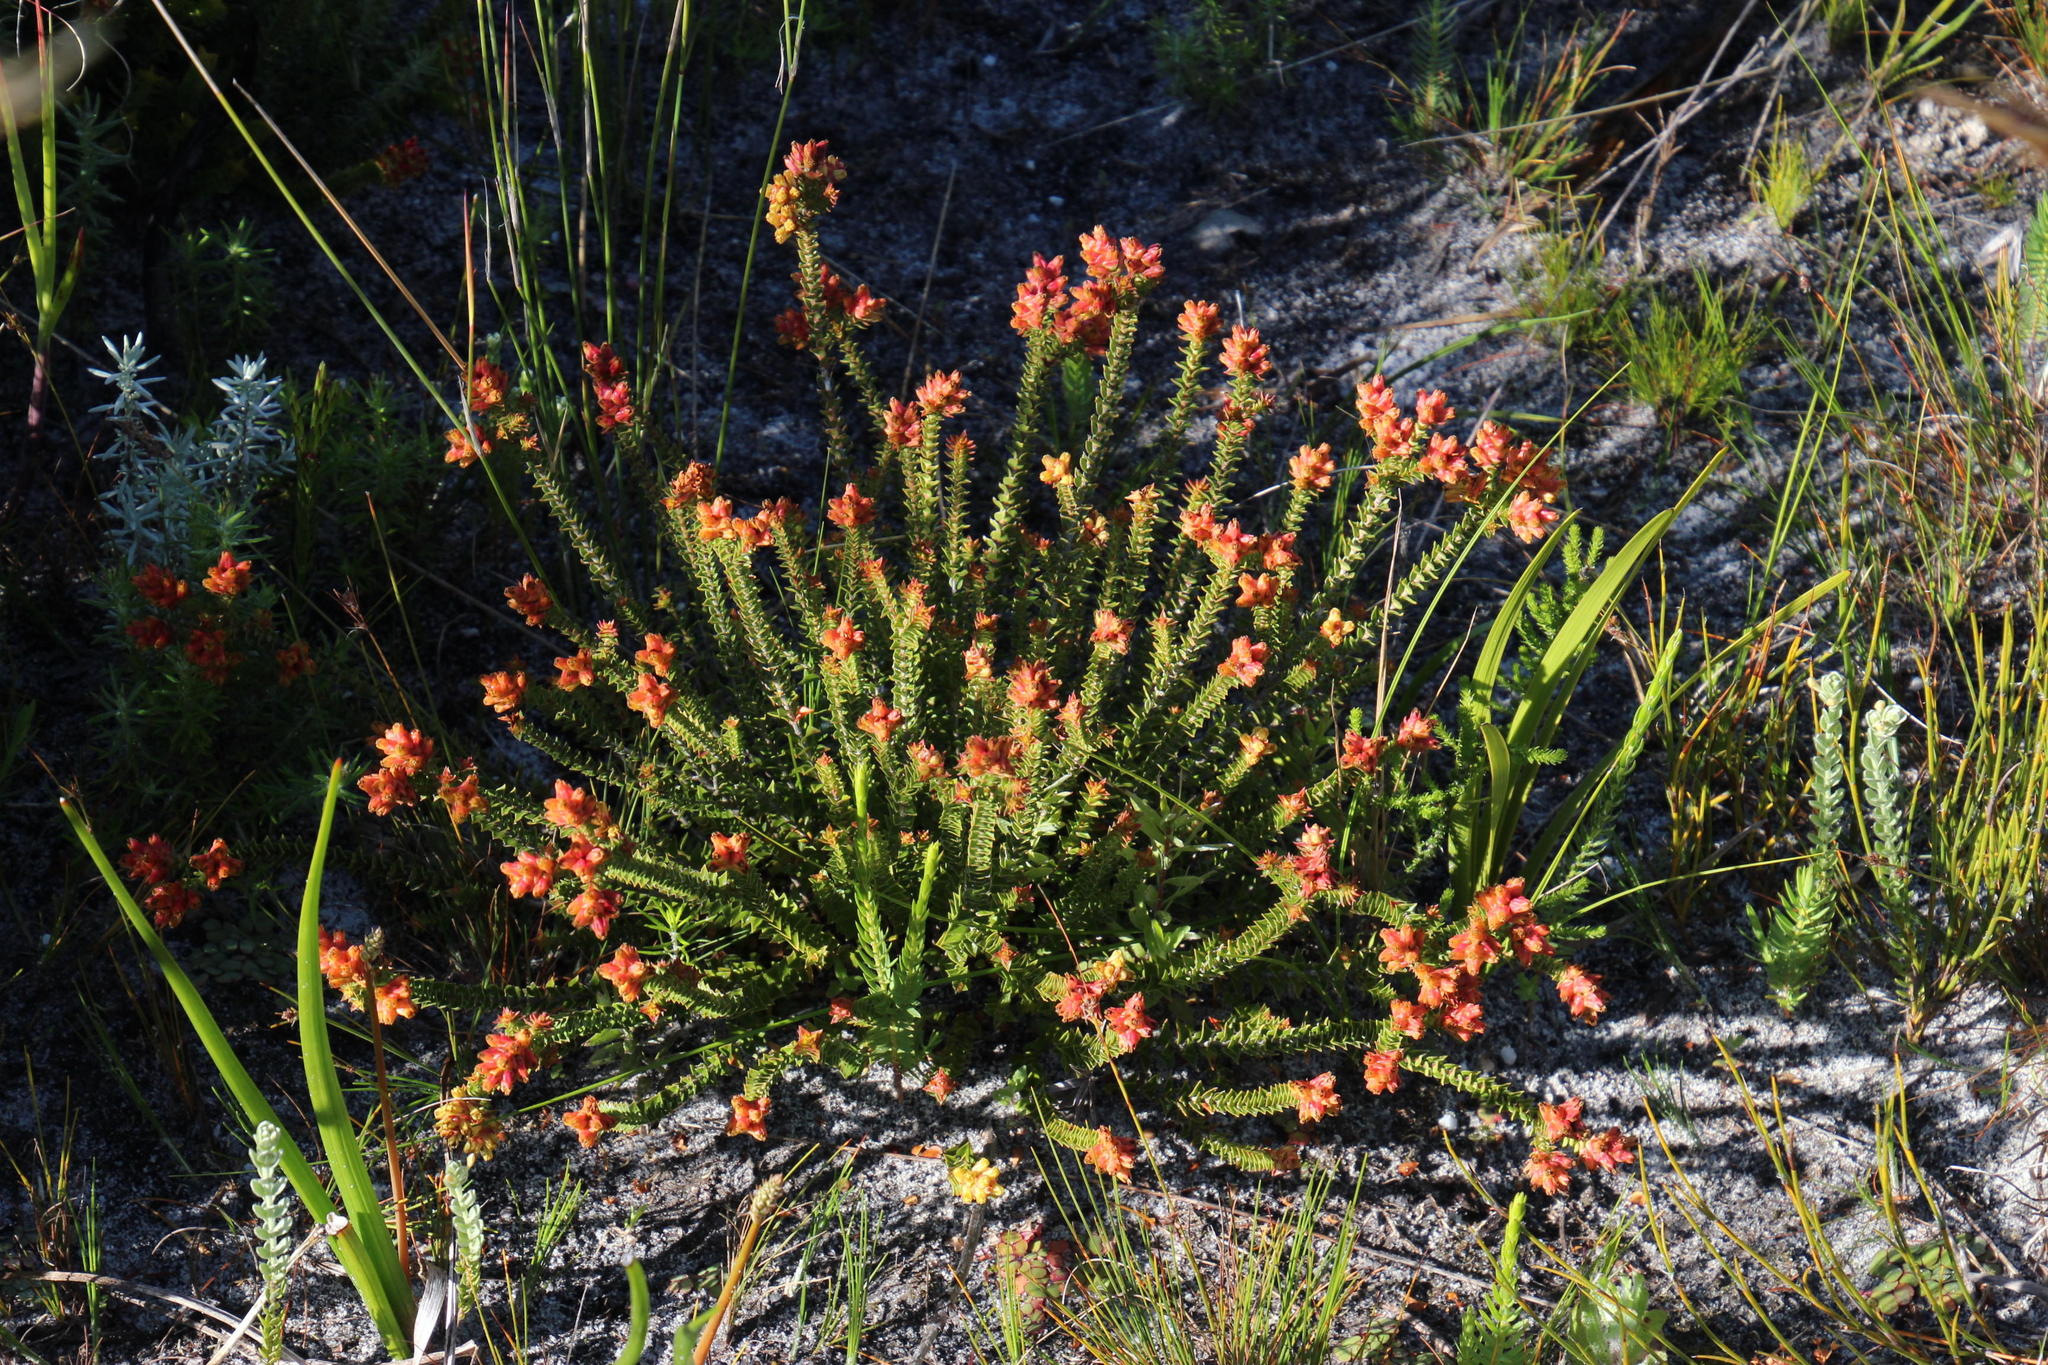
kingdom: Plantae
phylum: Tracheophyta
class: Magnoliopsida
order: Myrtales
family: Penaeaceae
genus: Penaea
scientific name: Penaea mucronata
